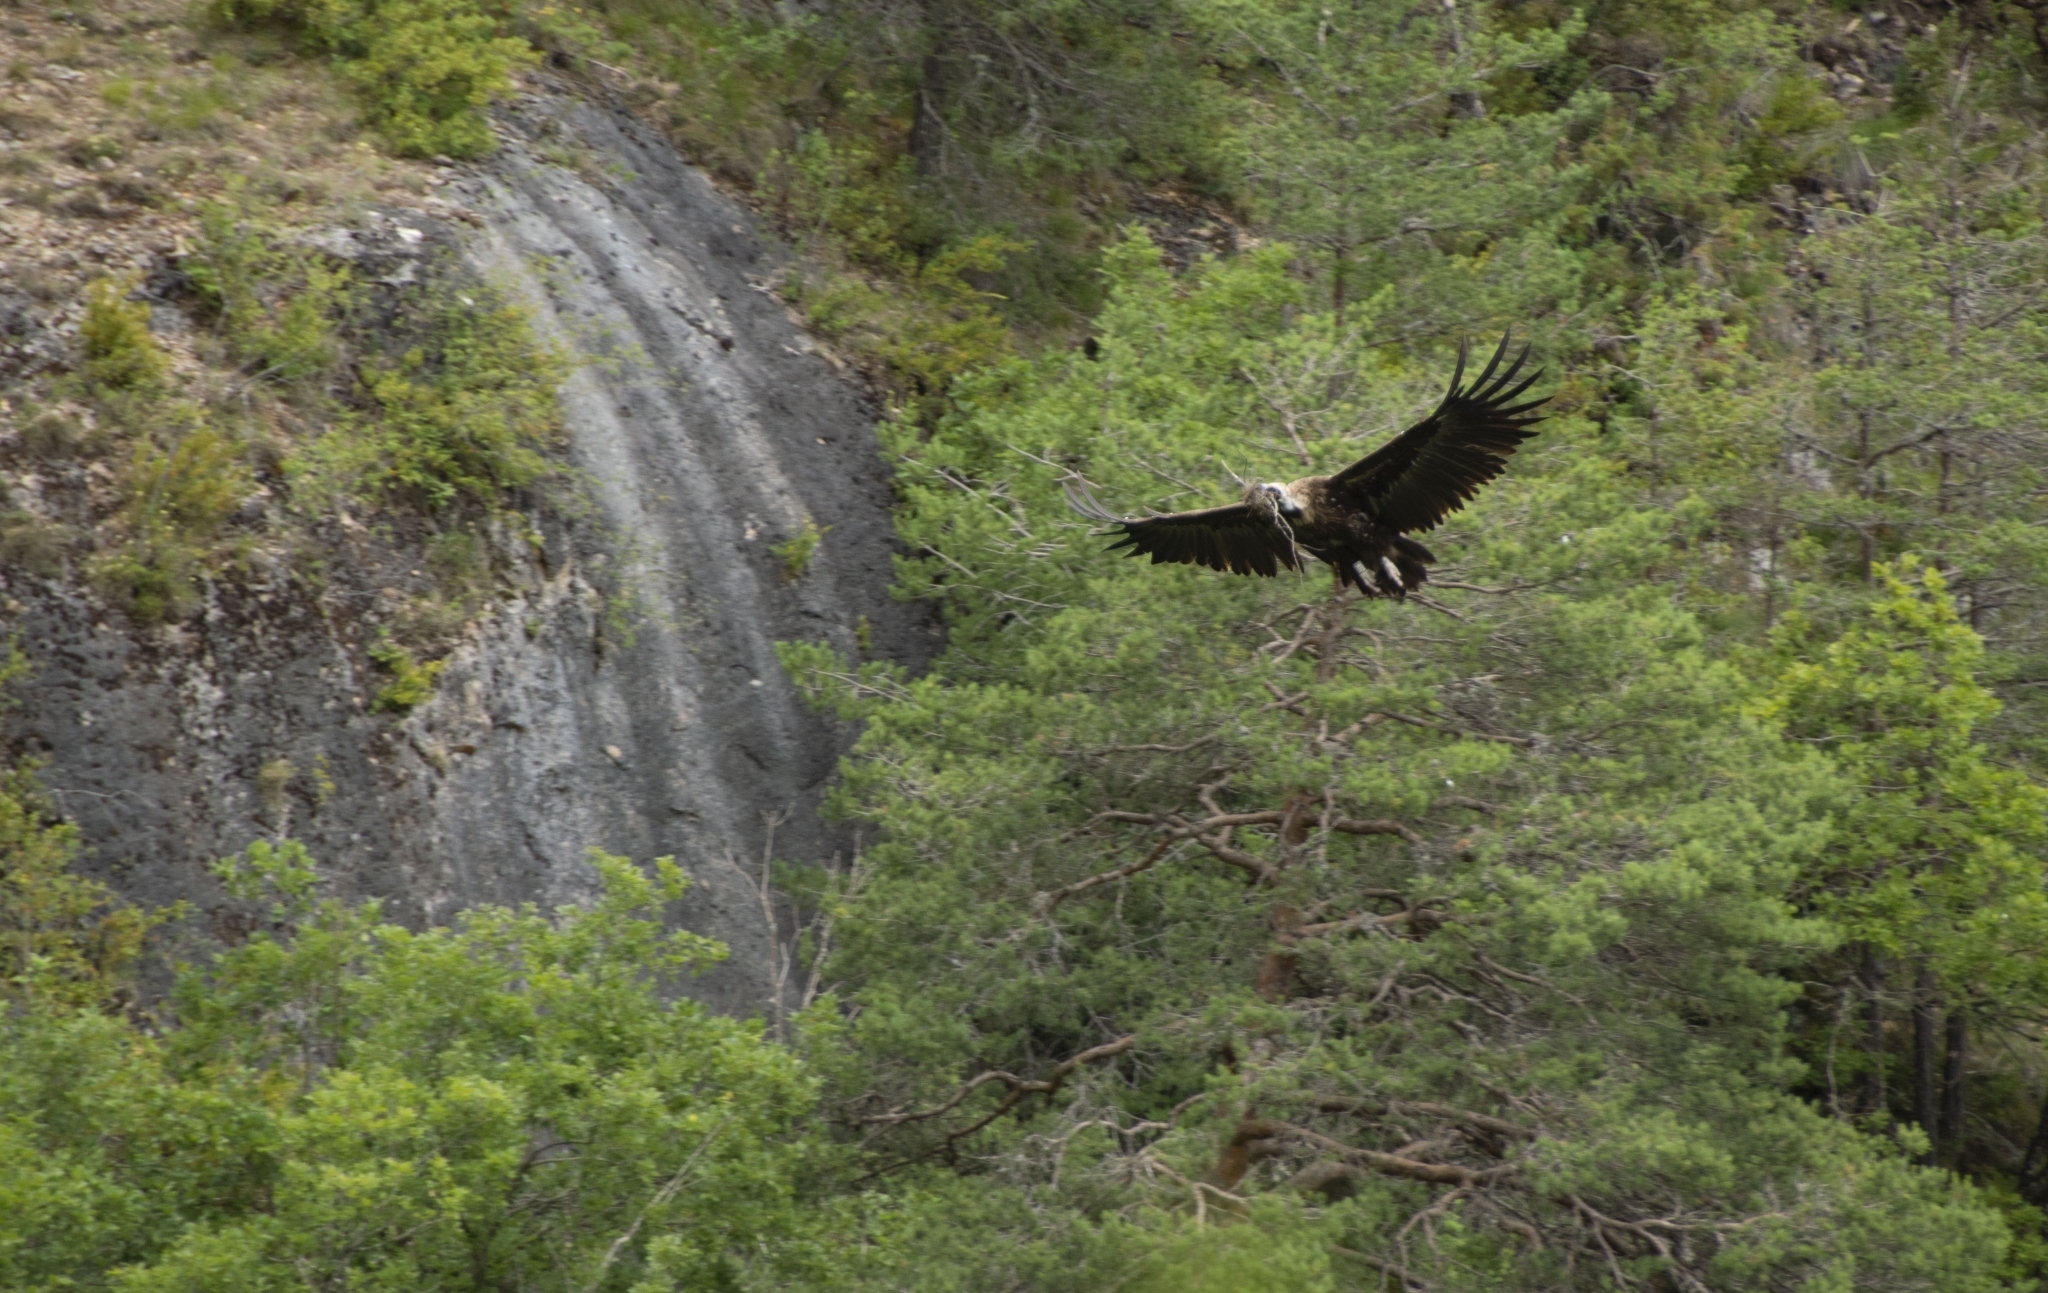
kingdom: Animalia
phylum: Chordata
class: Aves
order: Accipitriformes
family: Accipitridae
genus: Aegypius
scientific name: Aegypius monachus
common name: Cinereous vulture
